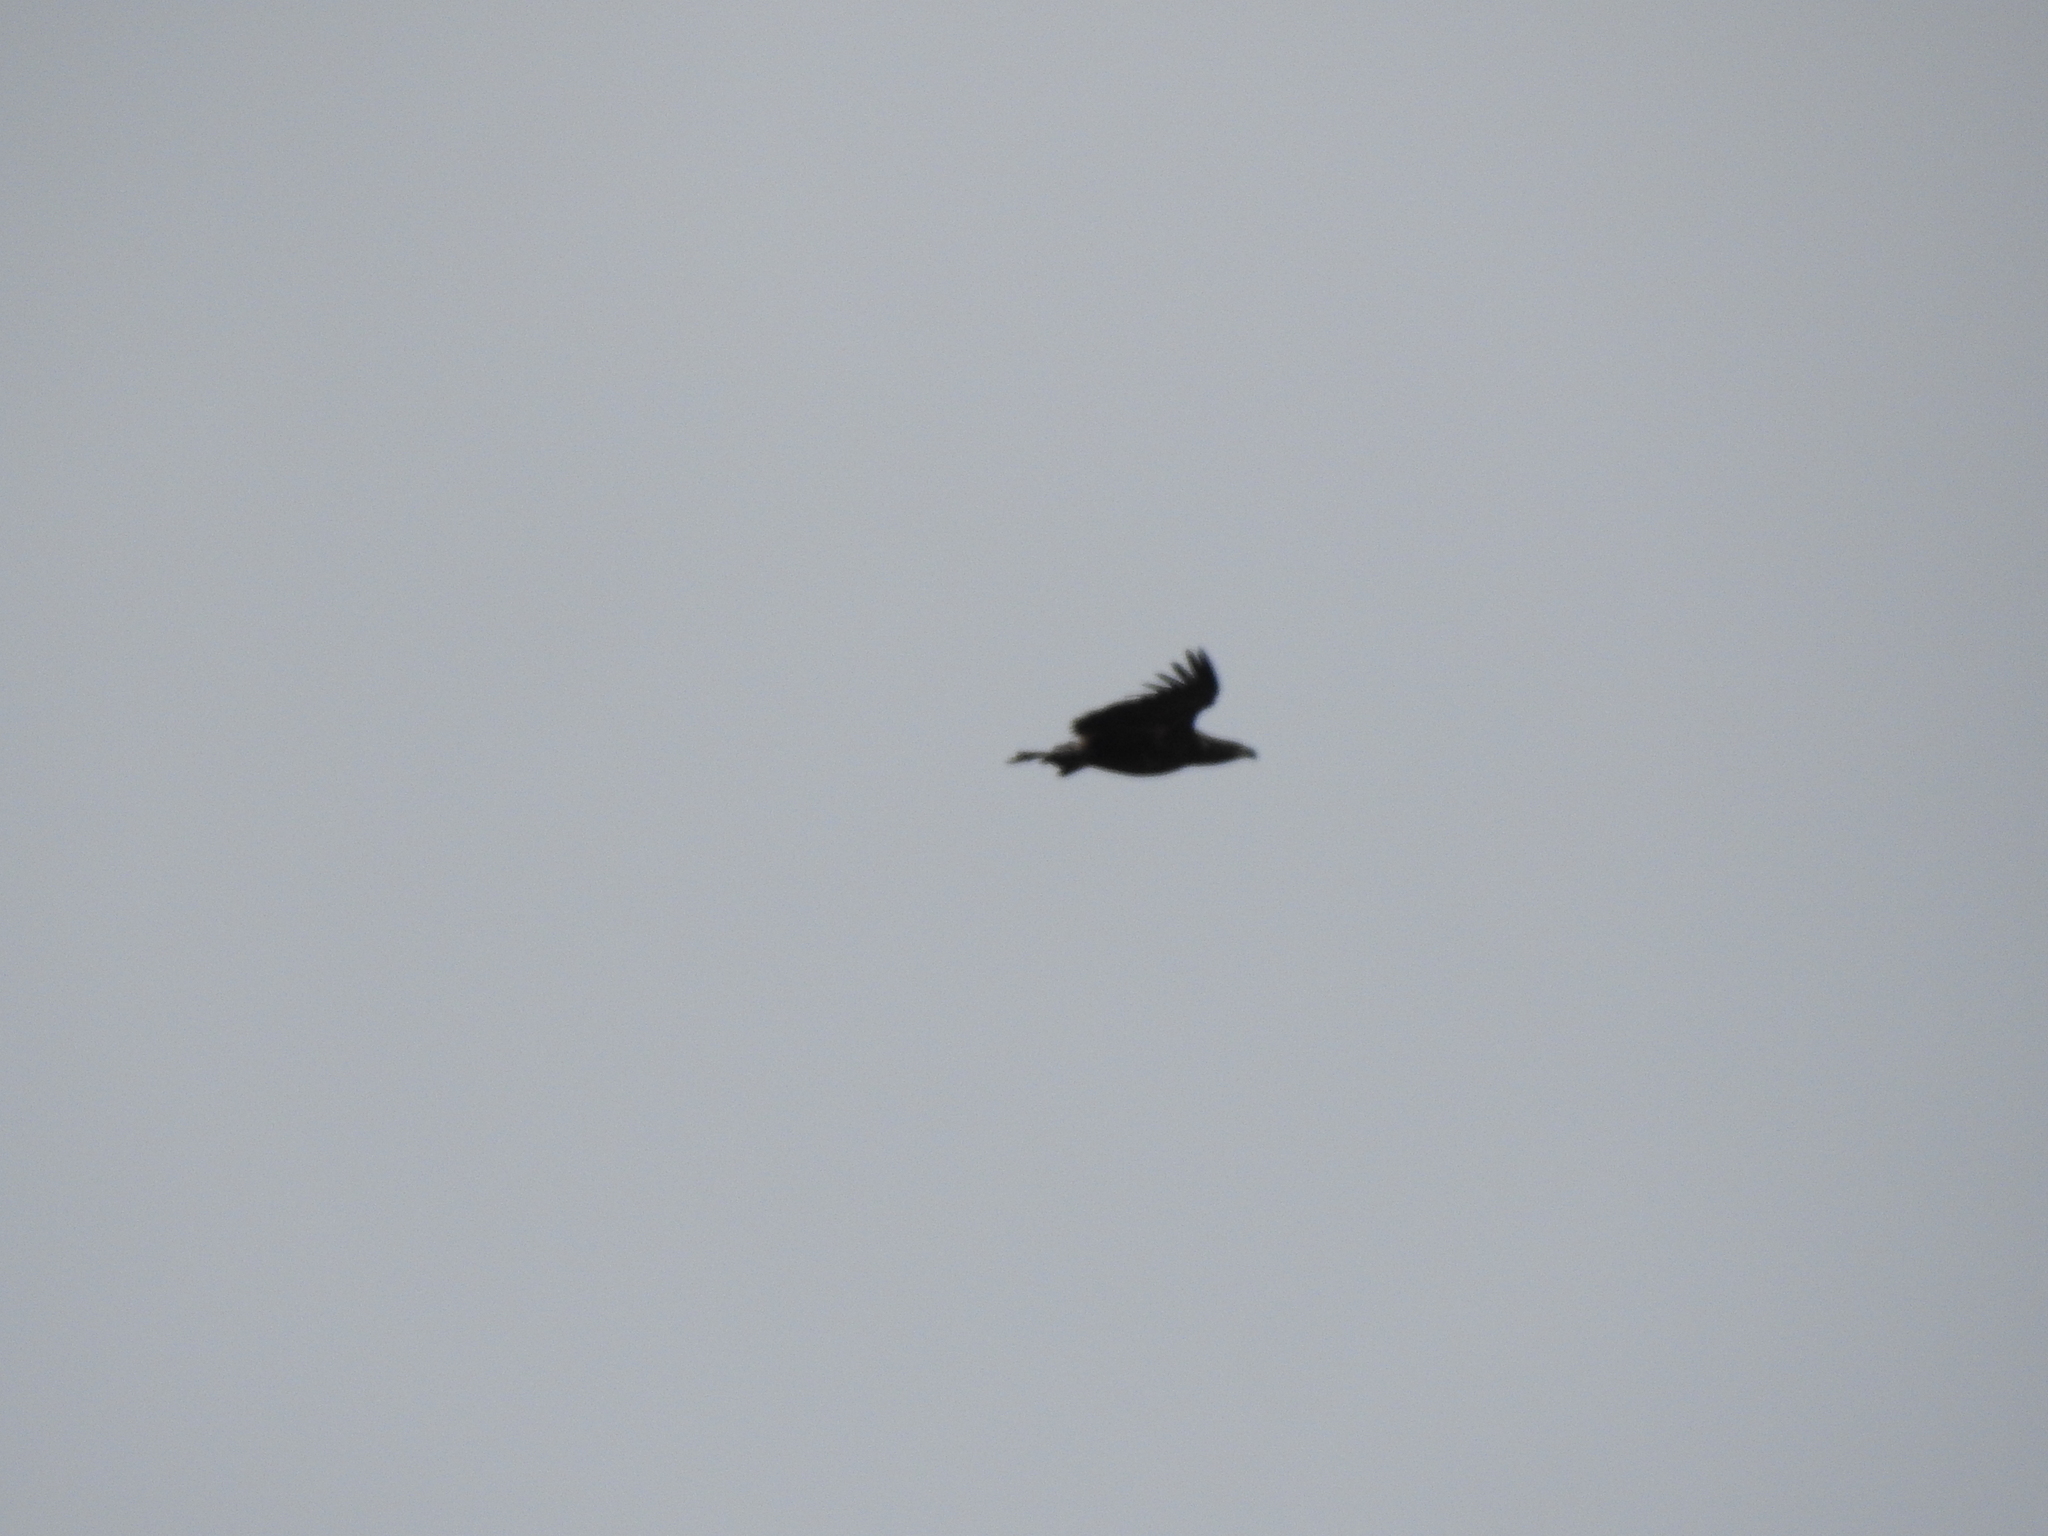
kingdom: Animalia
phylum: Chordata
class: Aves
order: Passeriformes
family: Corvidae
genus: Corvus
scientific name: Corvus corax
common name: Common raven
